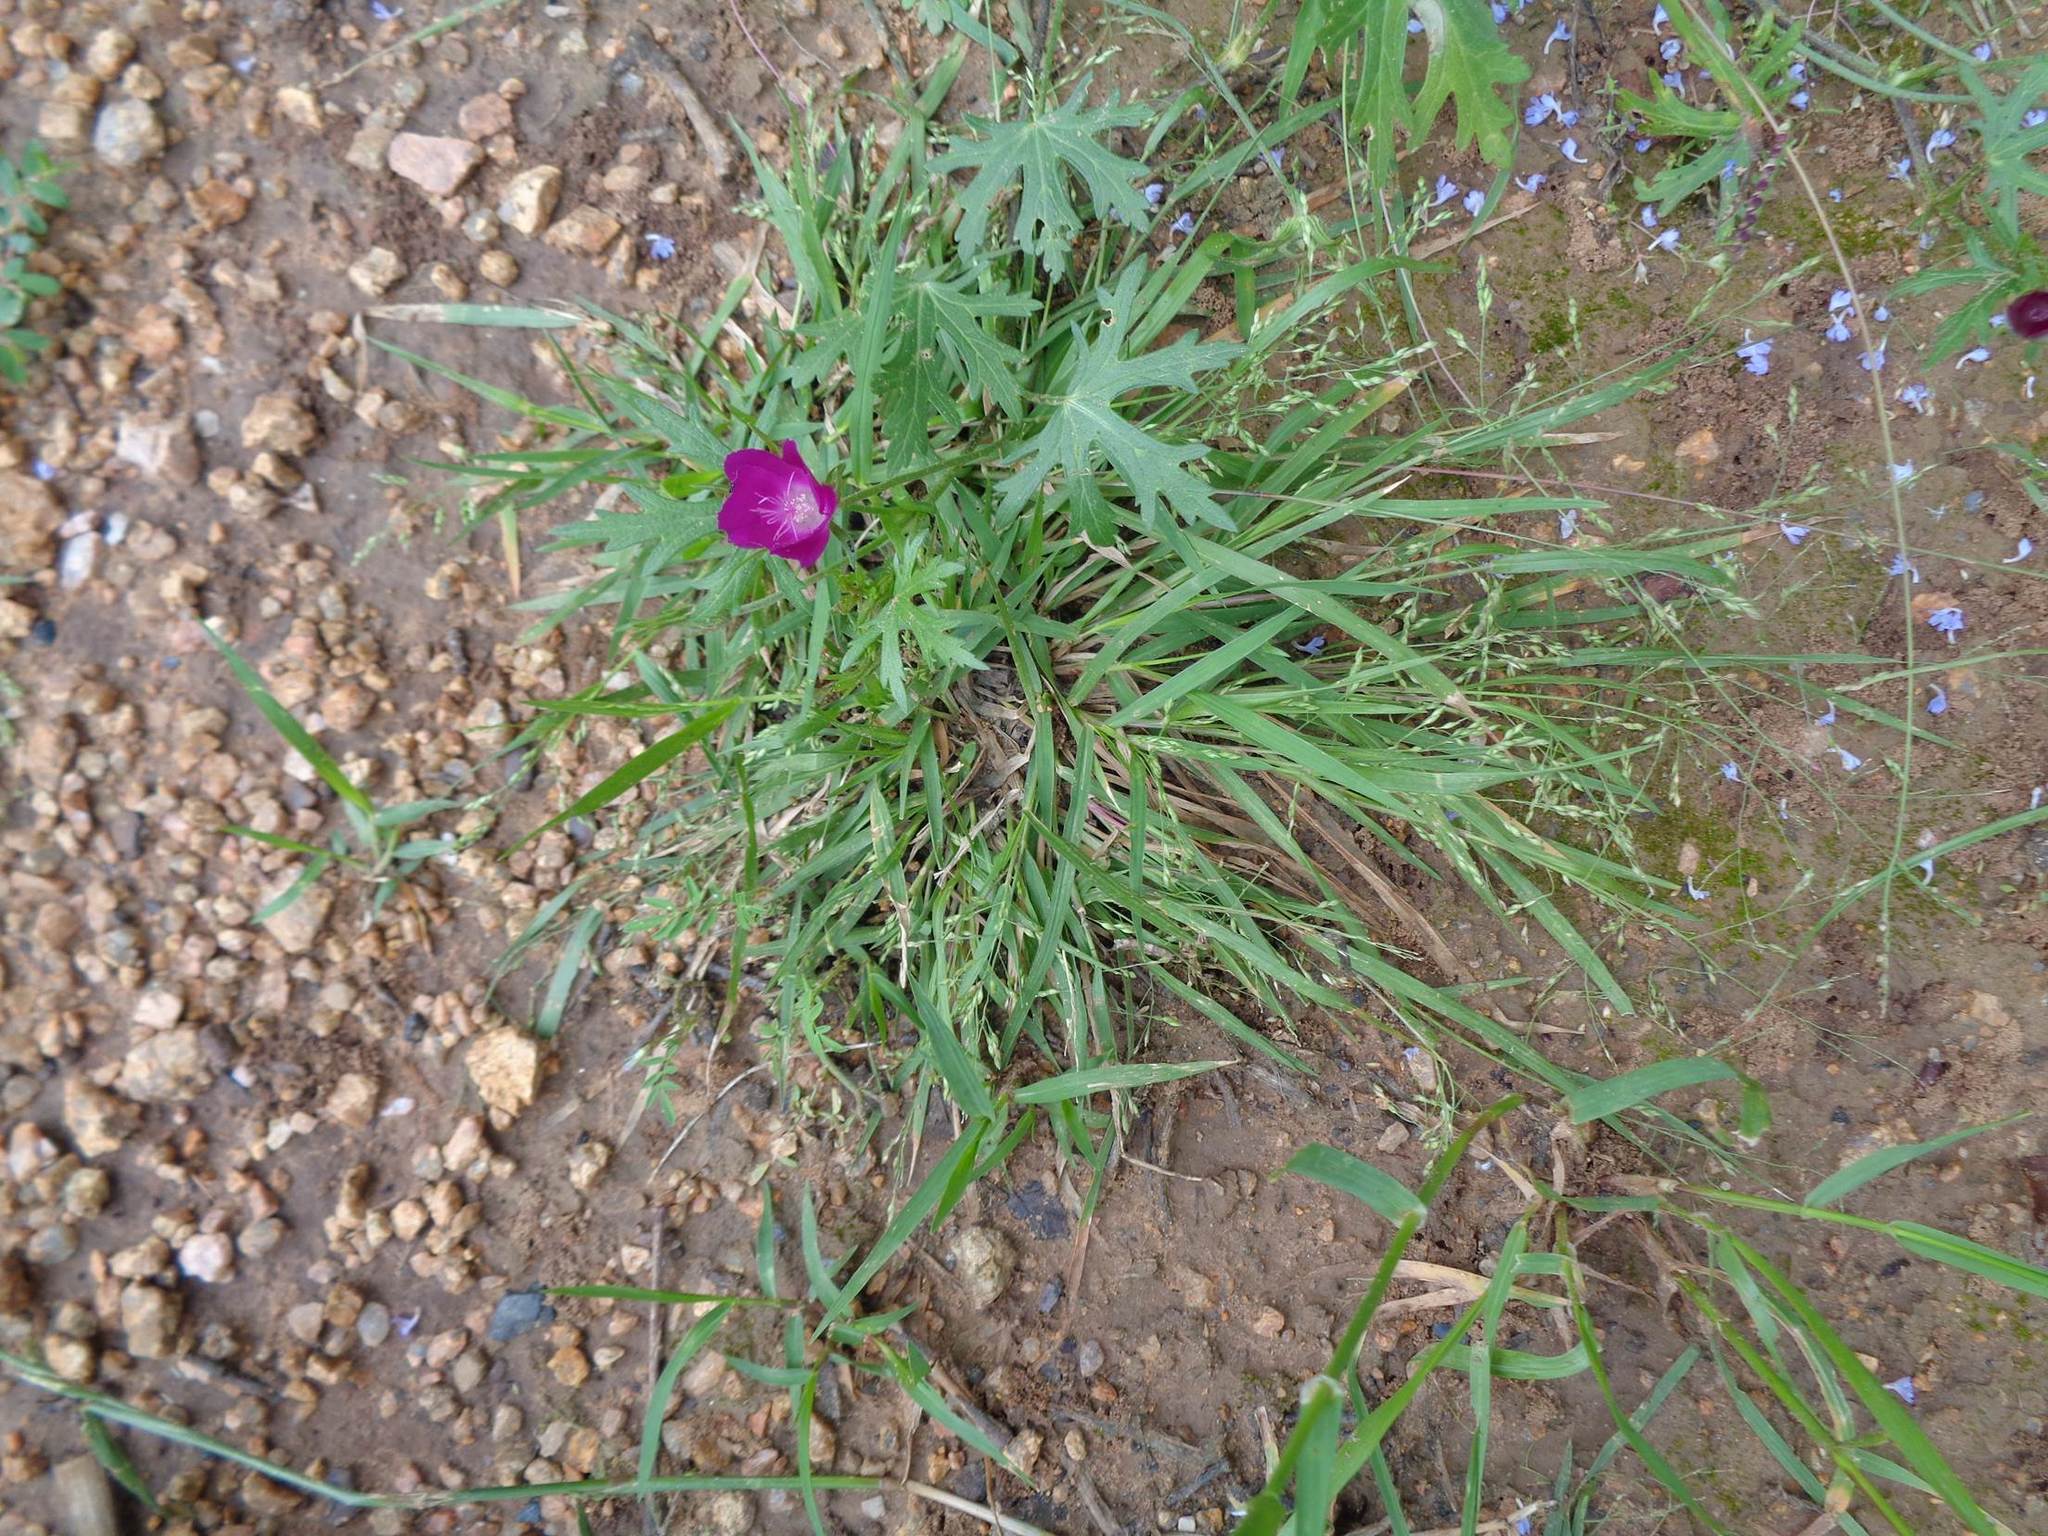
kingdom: Plantae
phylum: Tracheophyta
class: Magnoliopsida
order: Malvales
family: Malvaceae
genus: Callirhoe
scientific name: Callirhoe involucrata
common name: Purple poppy-mallow
